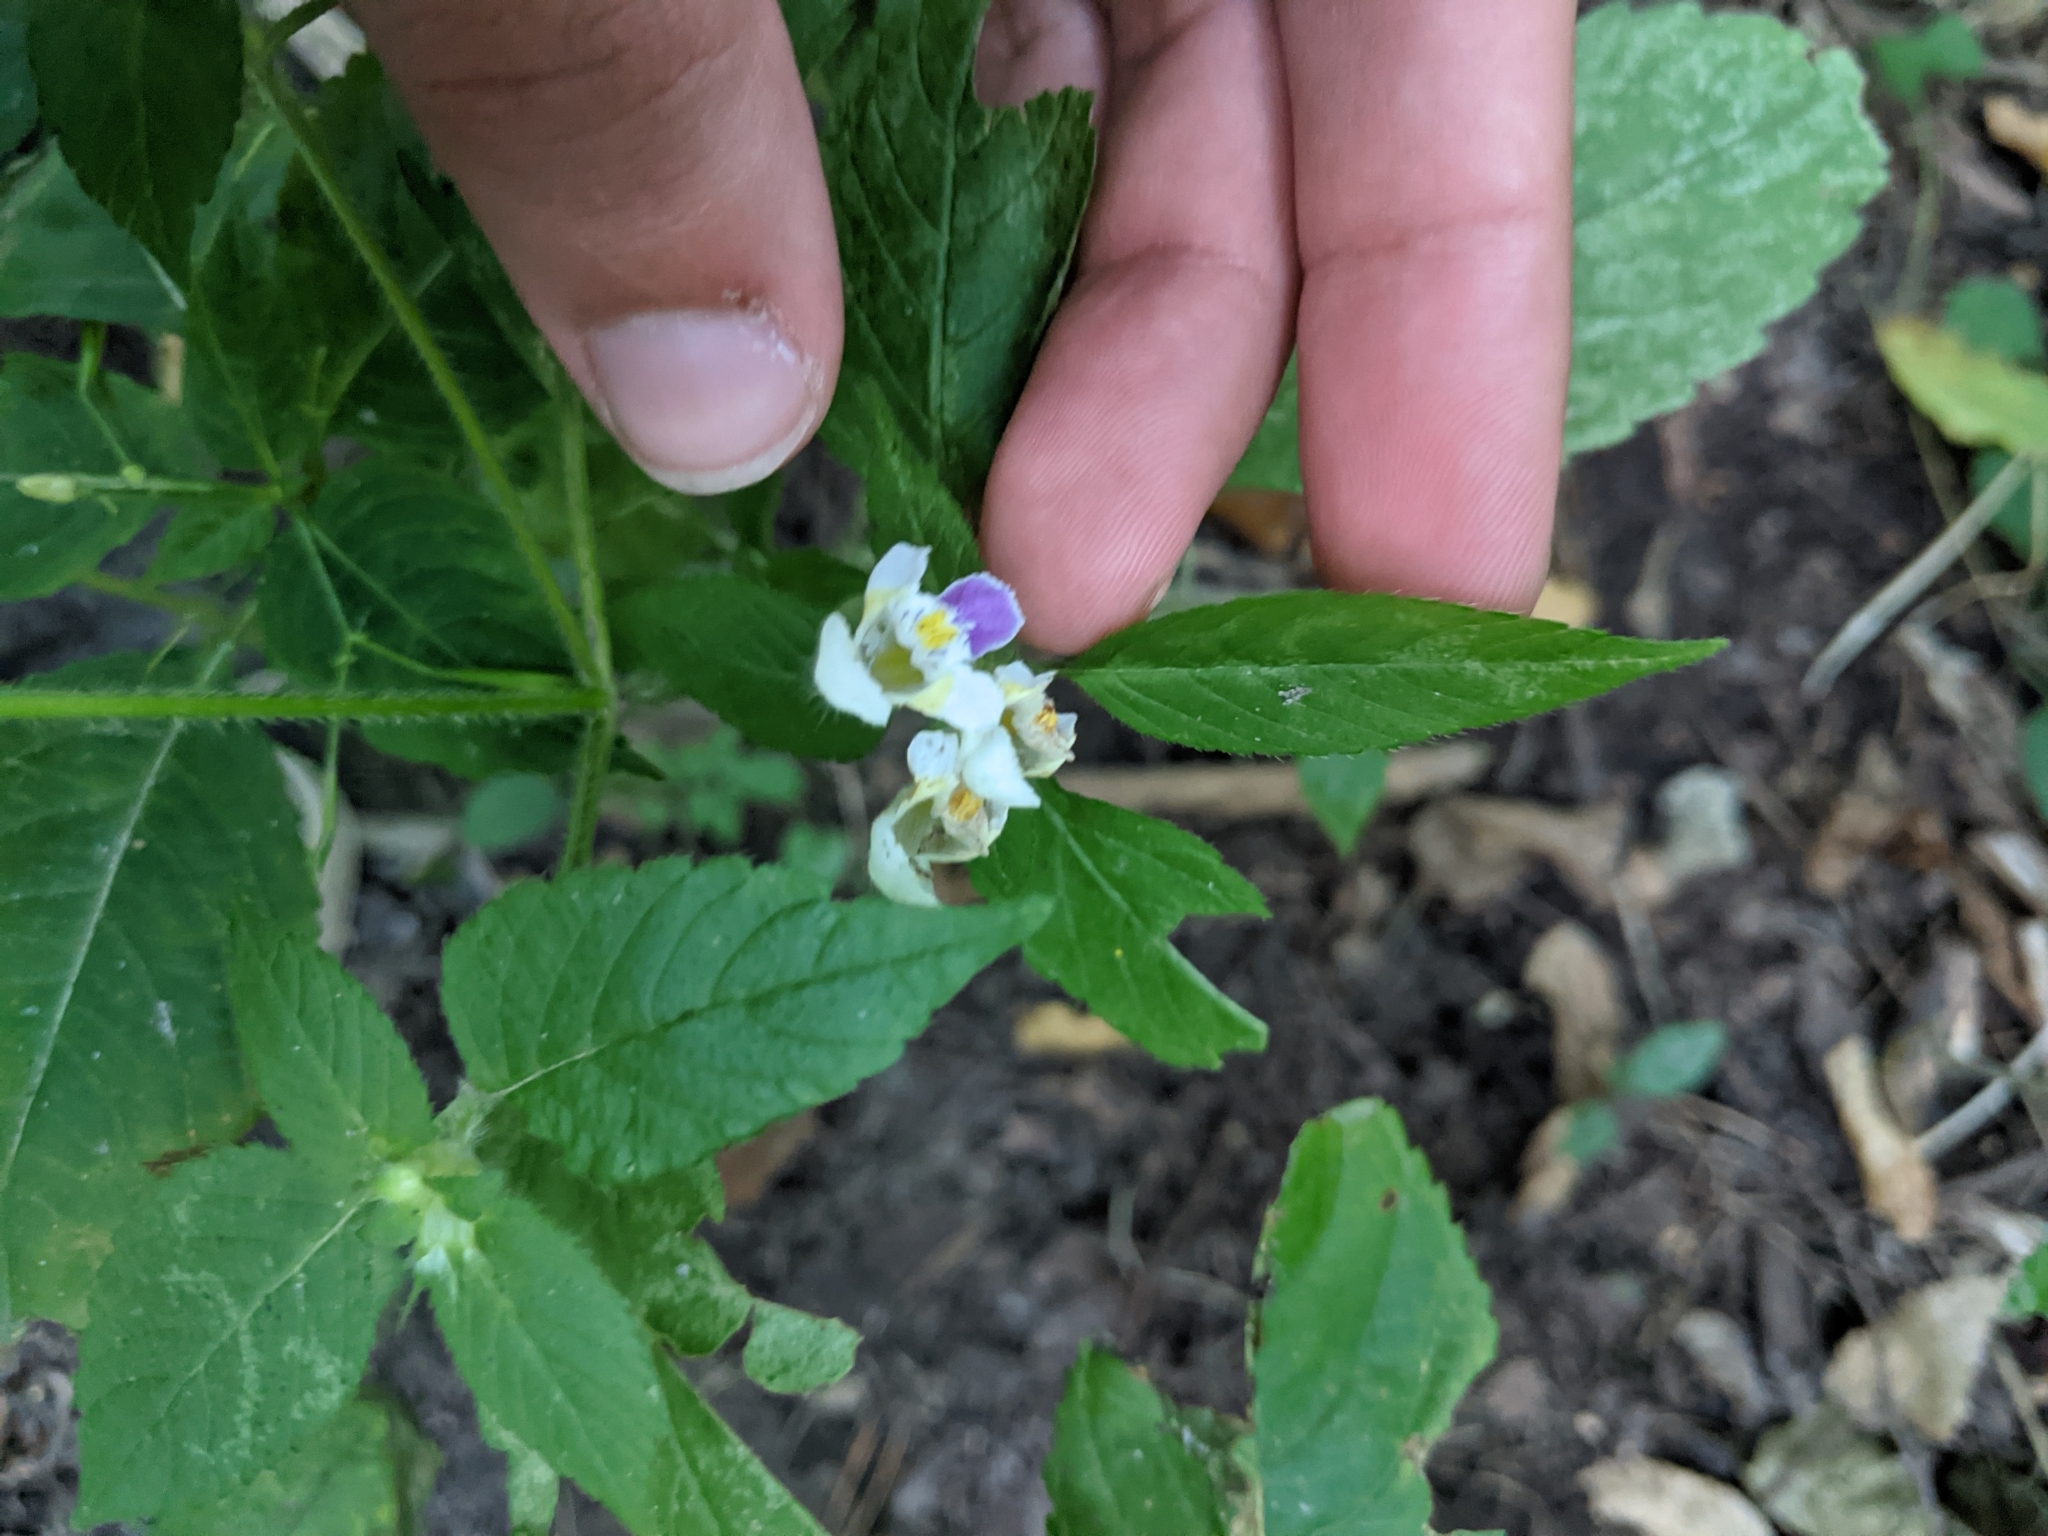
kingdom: Plantae
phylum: Tracheophyta
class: Magnoliopsida
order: Lamiales
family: Lamiaceae
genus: Galeopsis
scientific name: Galeopsis speciosa
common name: Large-flowered hemp-nettle
